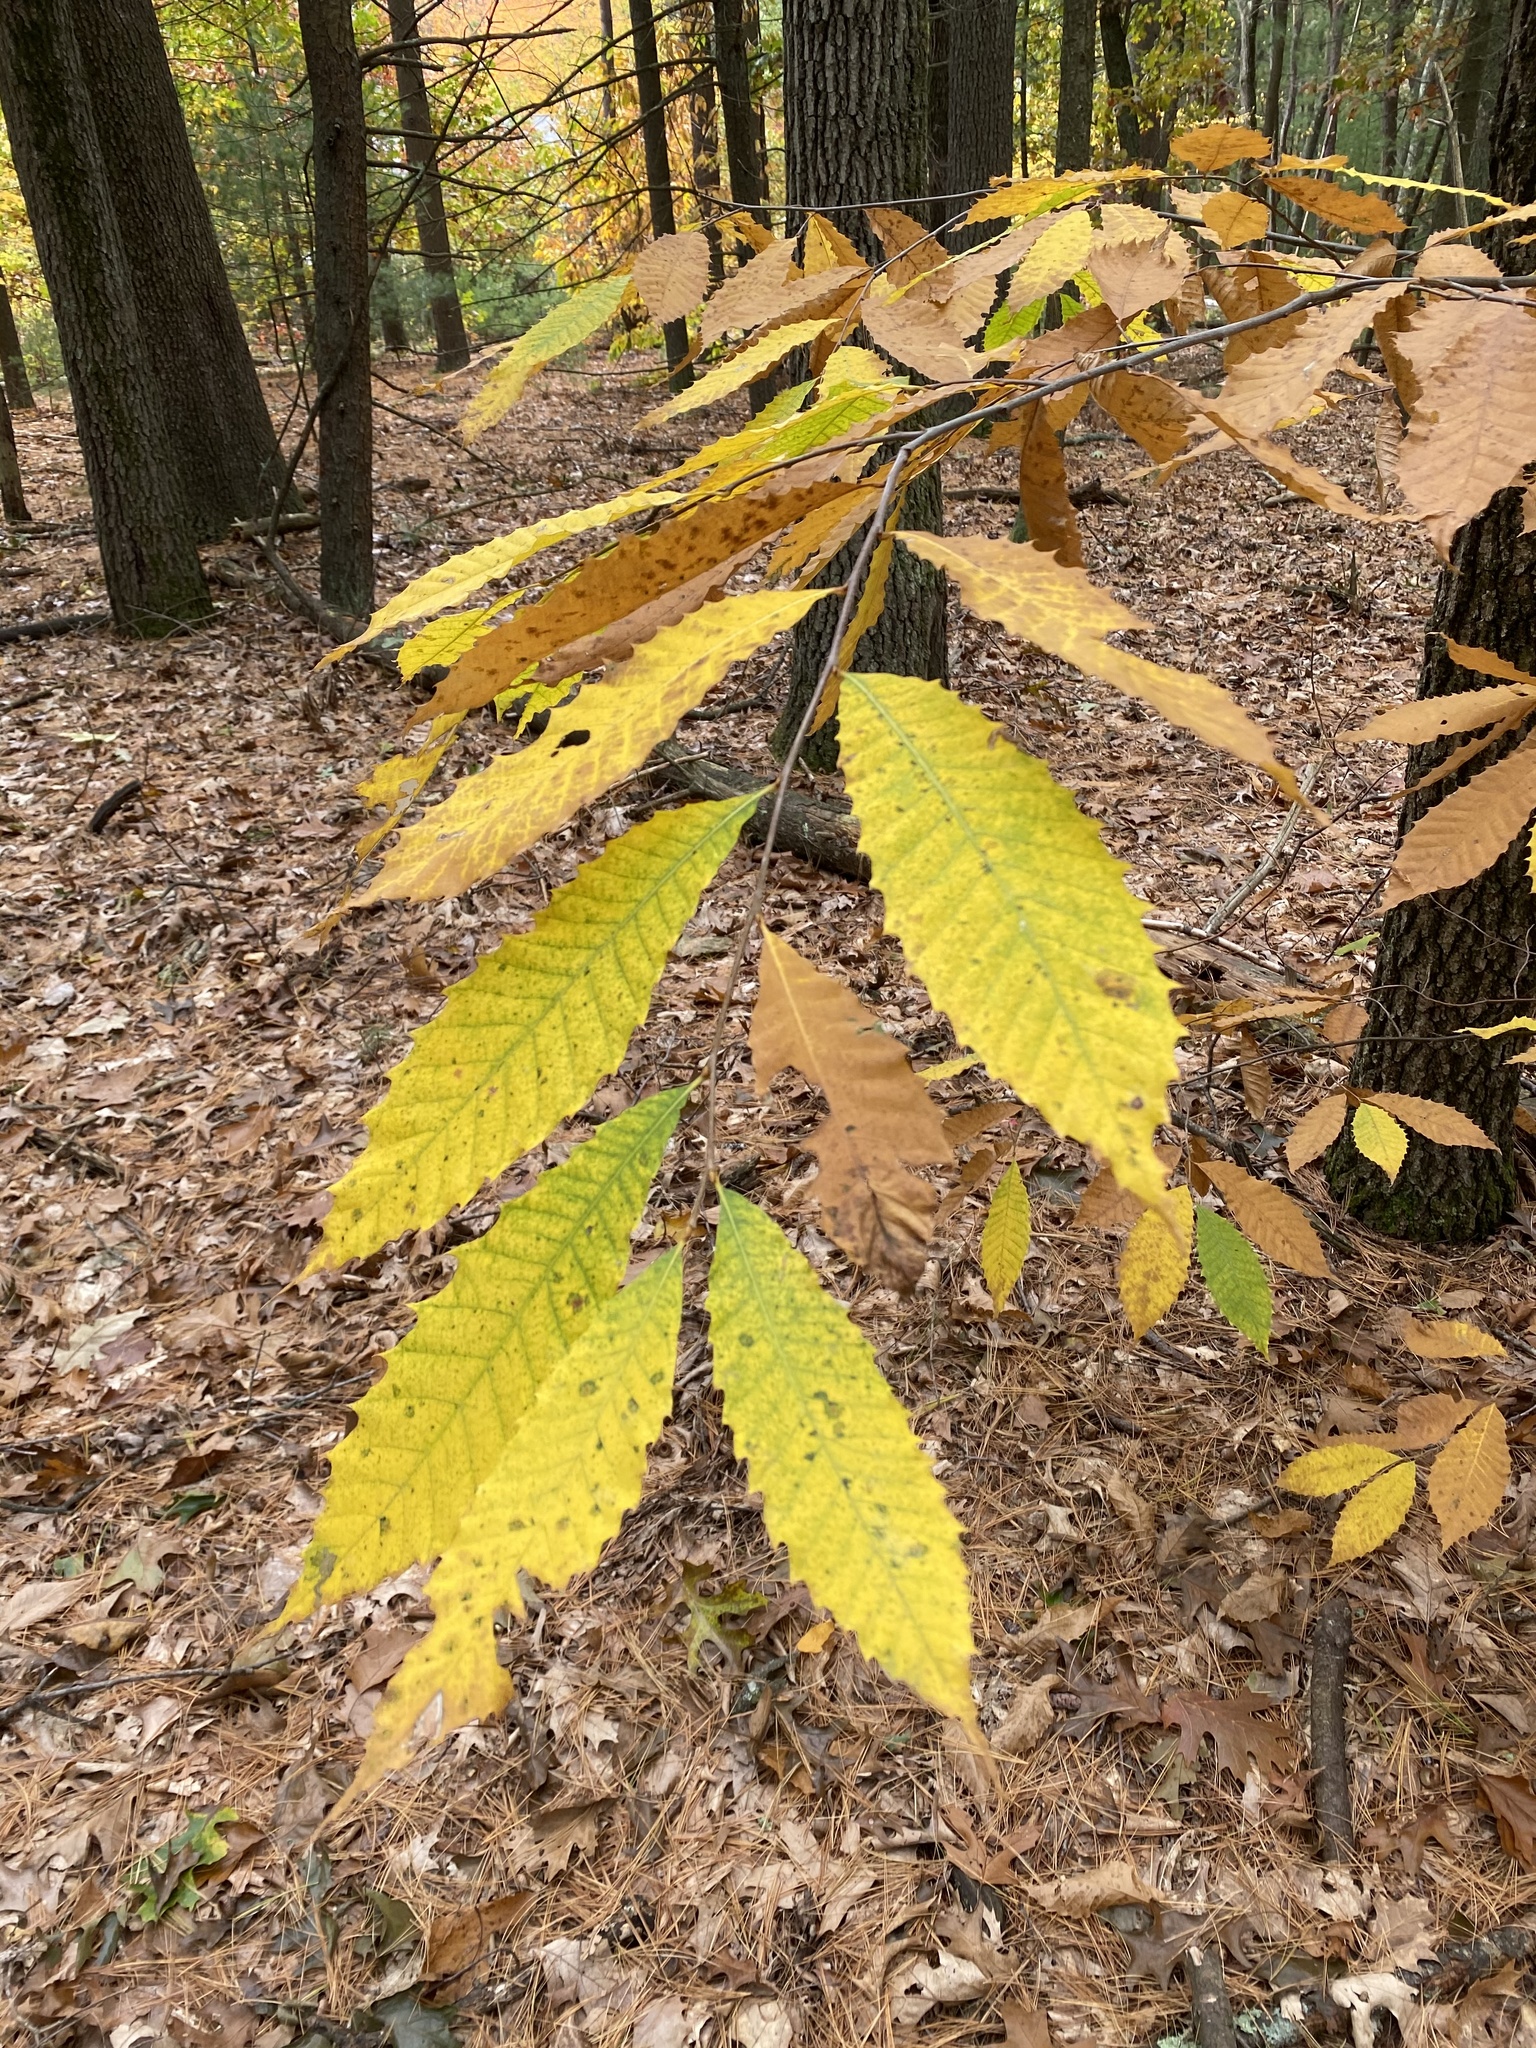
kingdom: Plantae
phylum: Tracheophyta
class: Magnoliopsida
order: Fagales
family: Fagaceae
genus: Castanea
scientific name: Castanea dentata
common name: American chestnut
